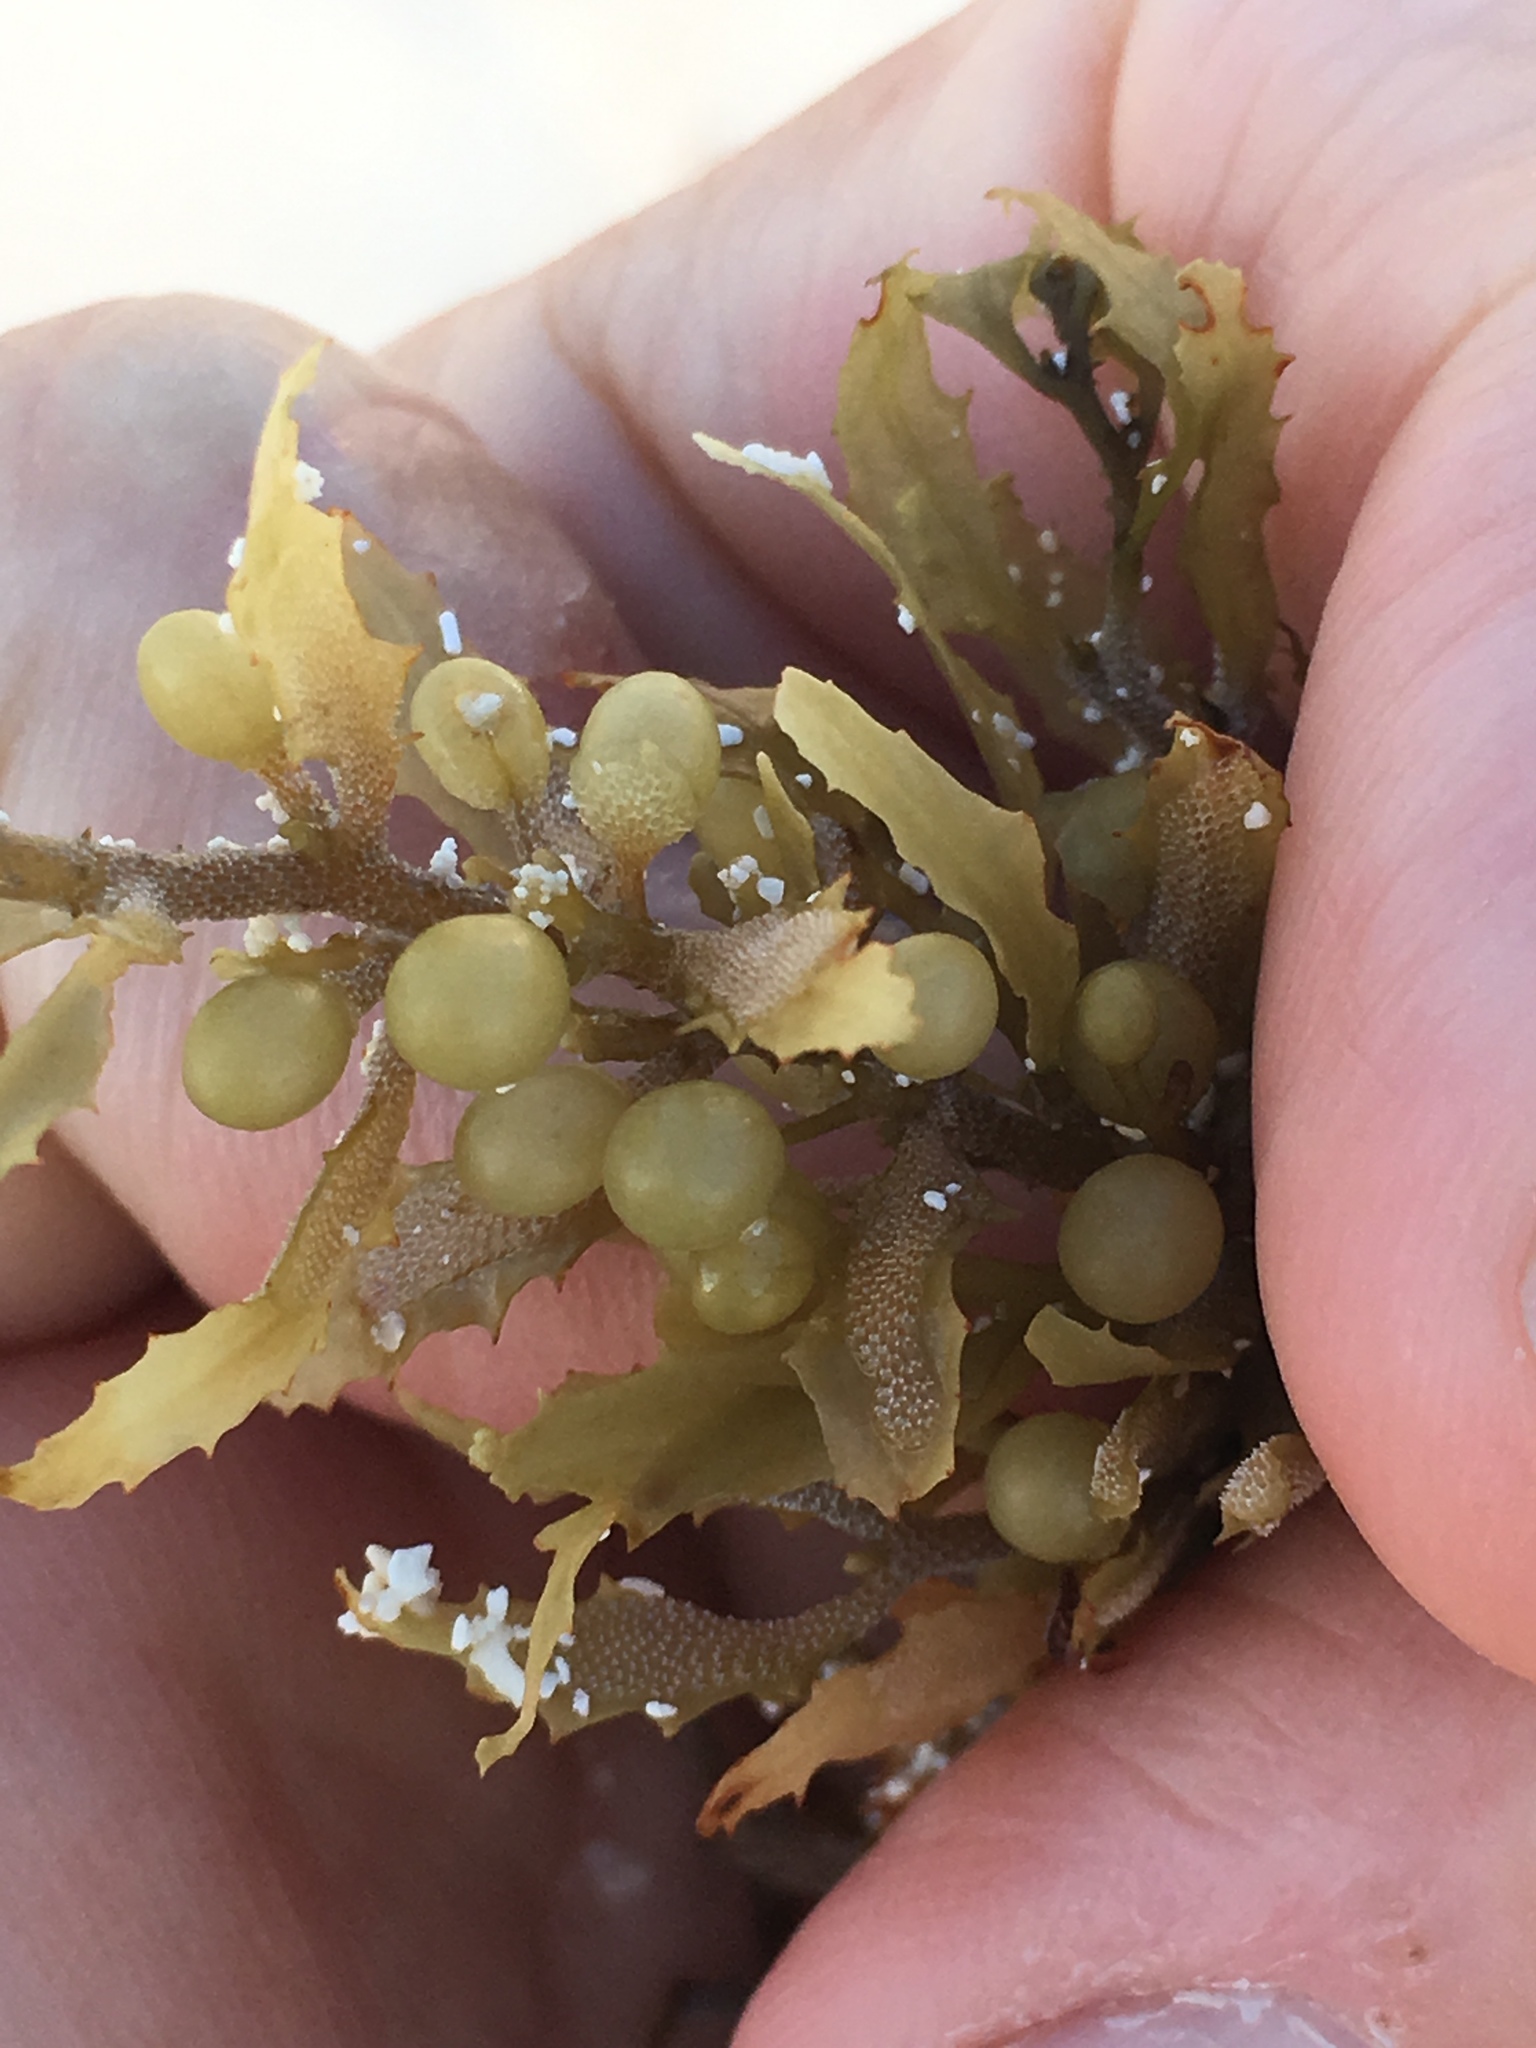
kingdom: Chromista
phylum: Ochrophyta
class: Phaeophyceae
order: Fucales
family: Sargassaceae
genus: Sargassum
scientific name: Sargassum fluitans
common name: Sargassum seaweed
